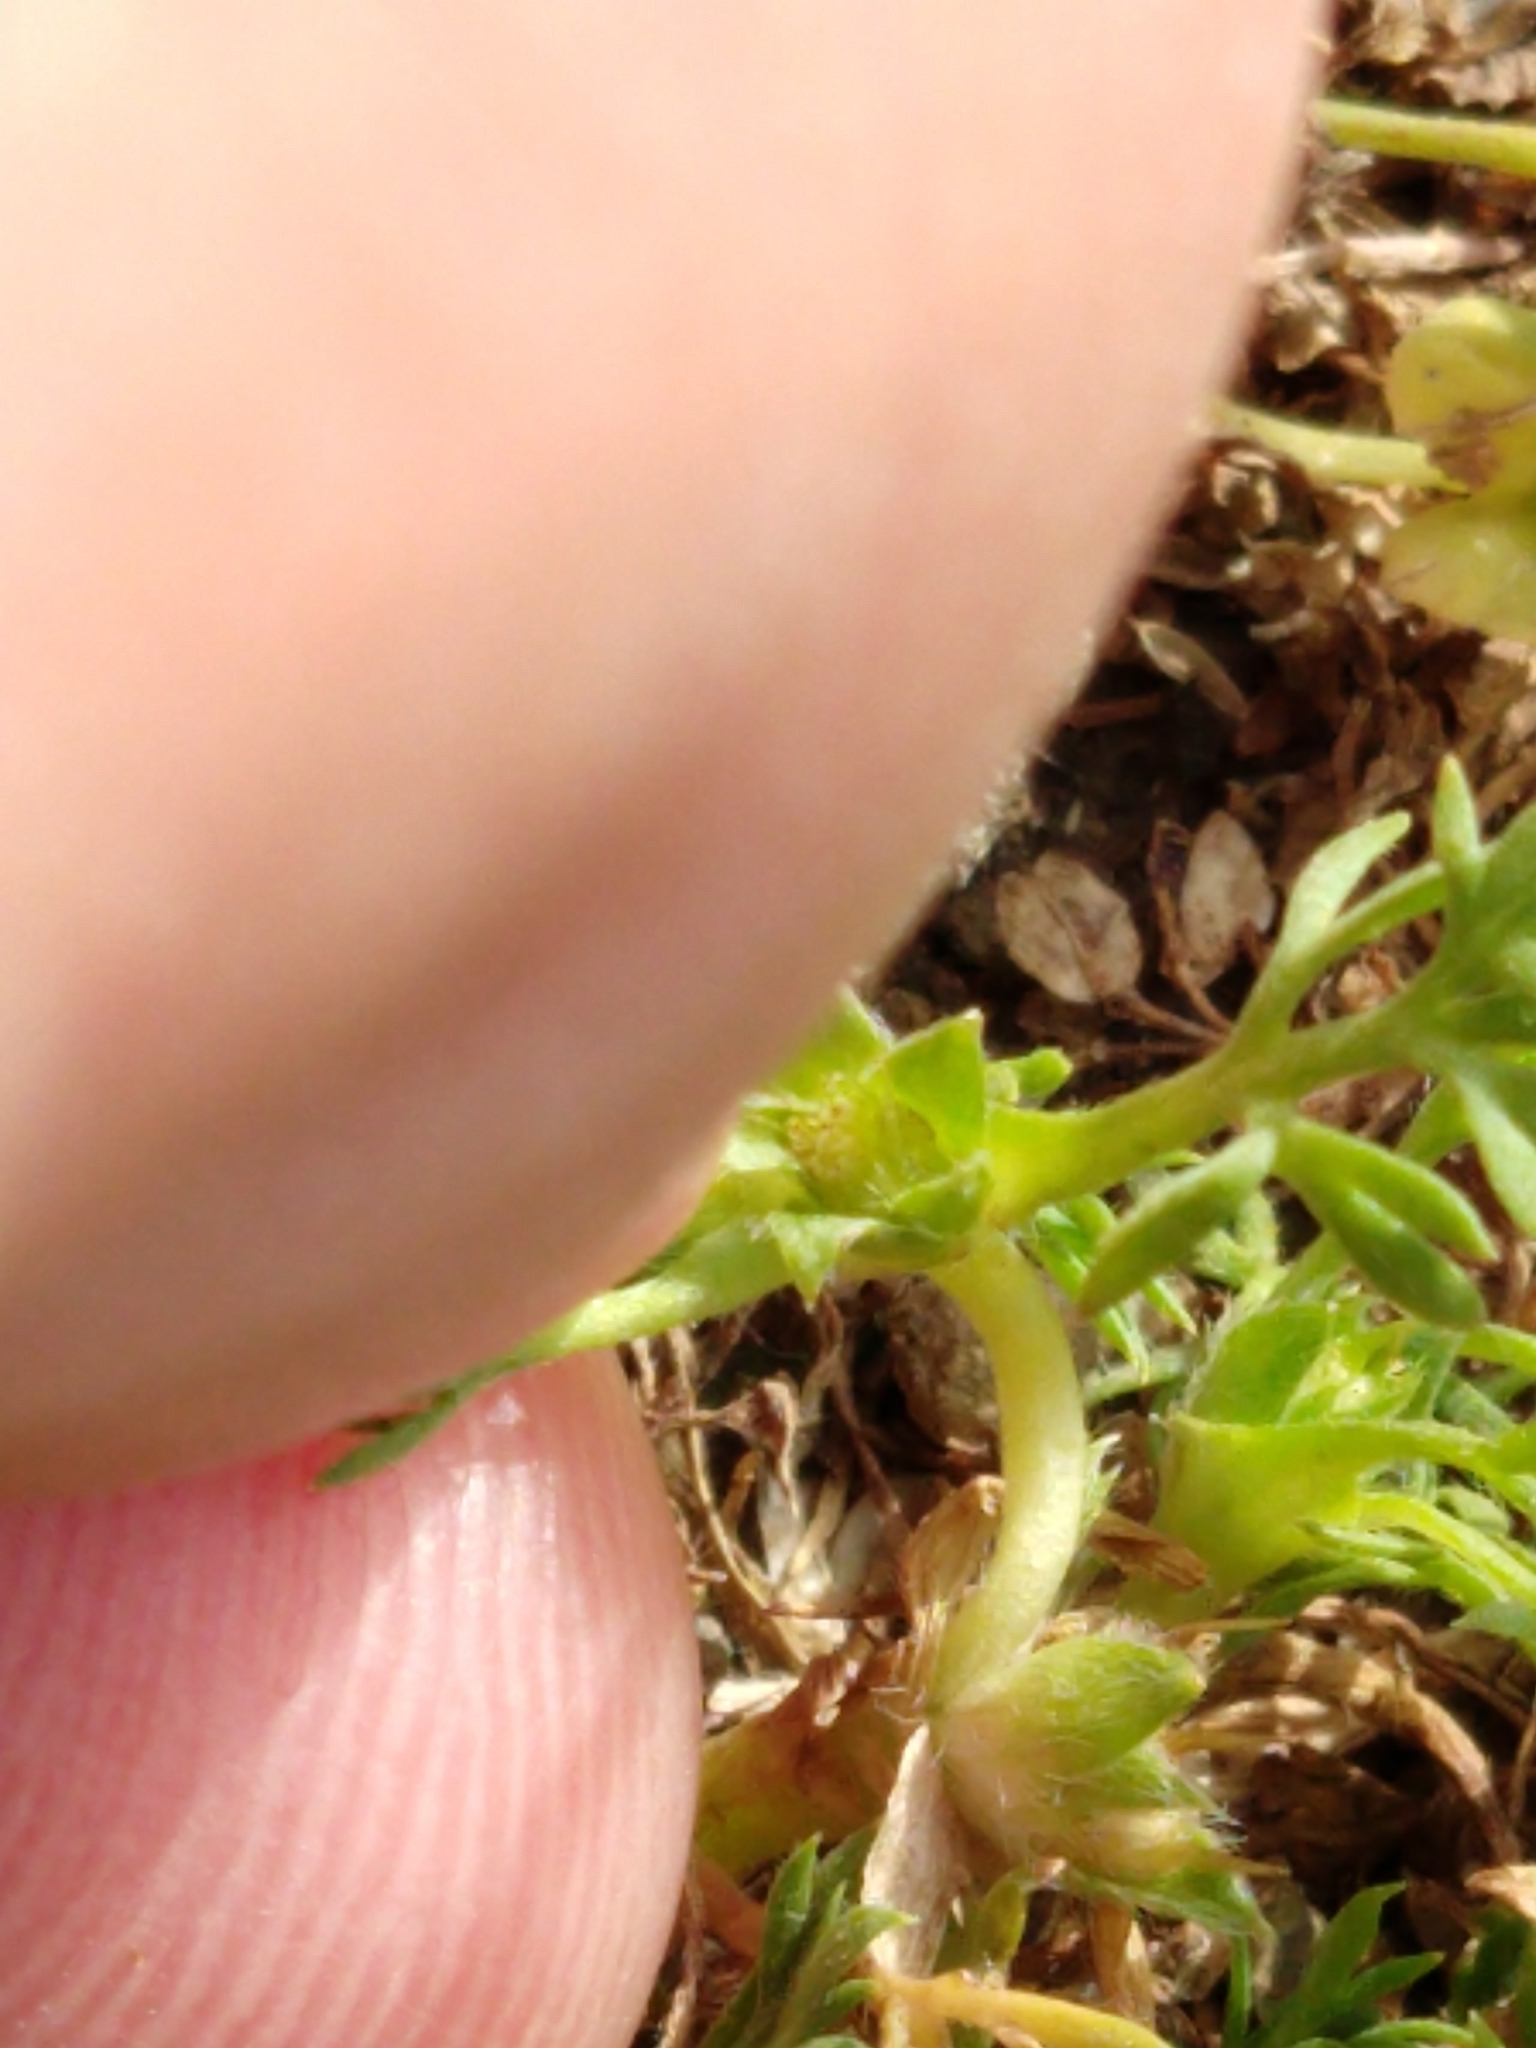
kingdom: Plantae
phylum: Tracheophyta
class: Magnoliopsida
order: Asterales
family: Asteraceae
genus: Soliva
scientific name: Soliva sessilis
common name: Field burrweed
